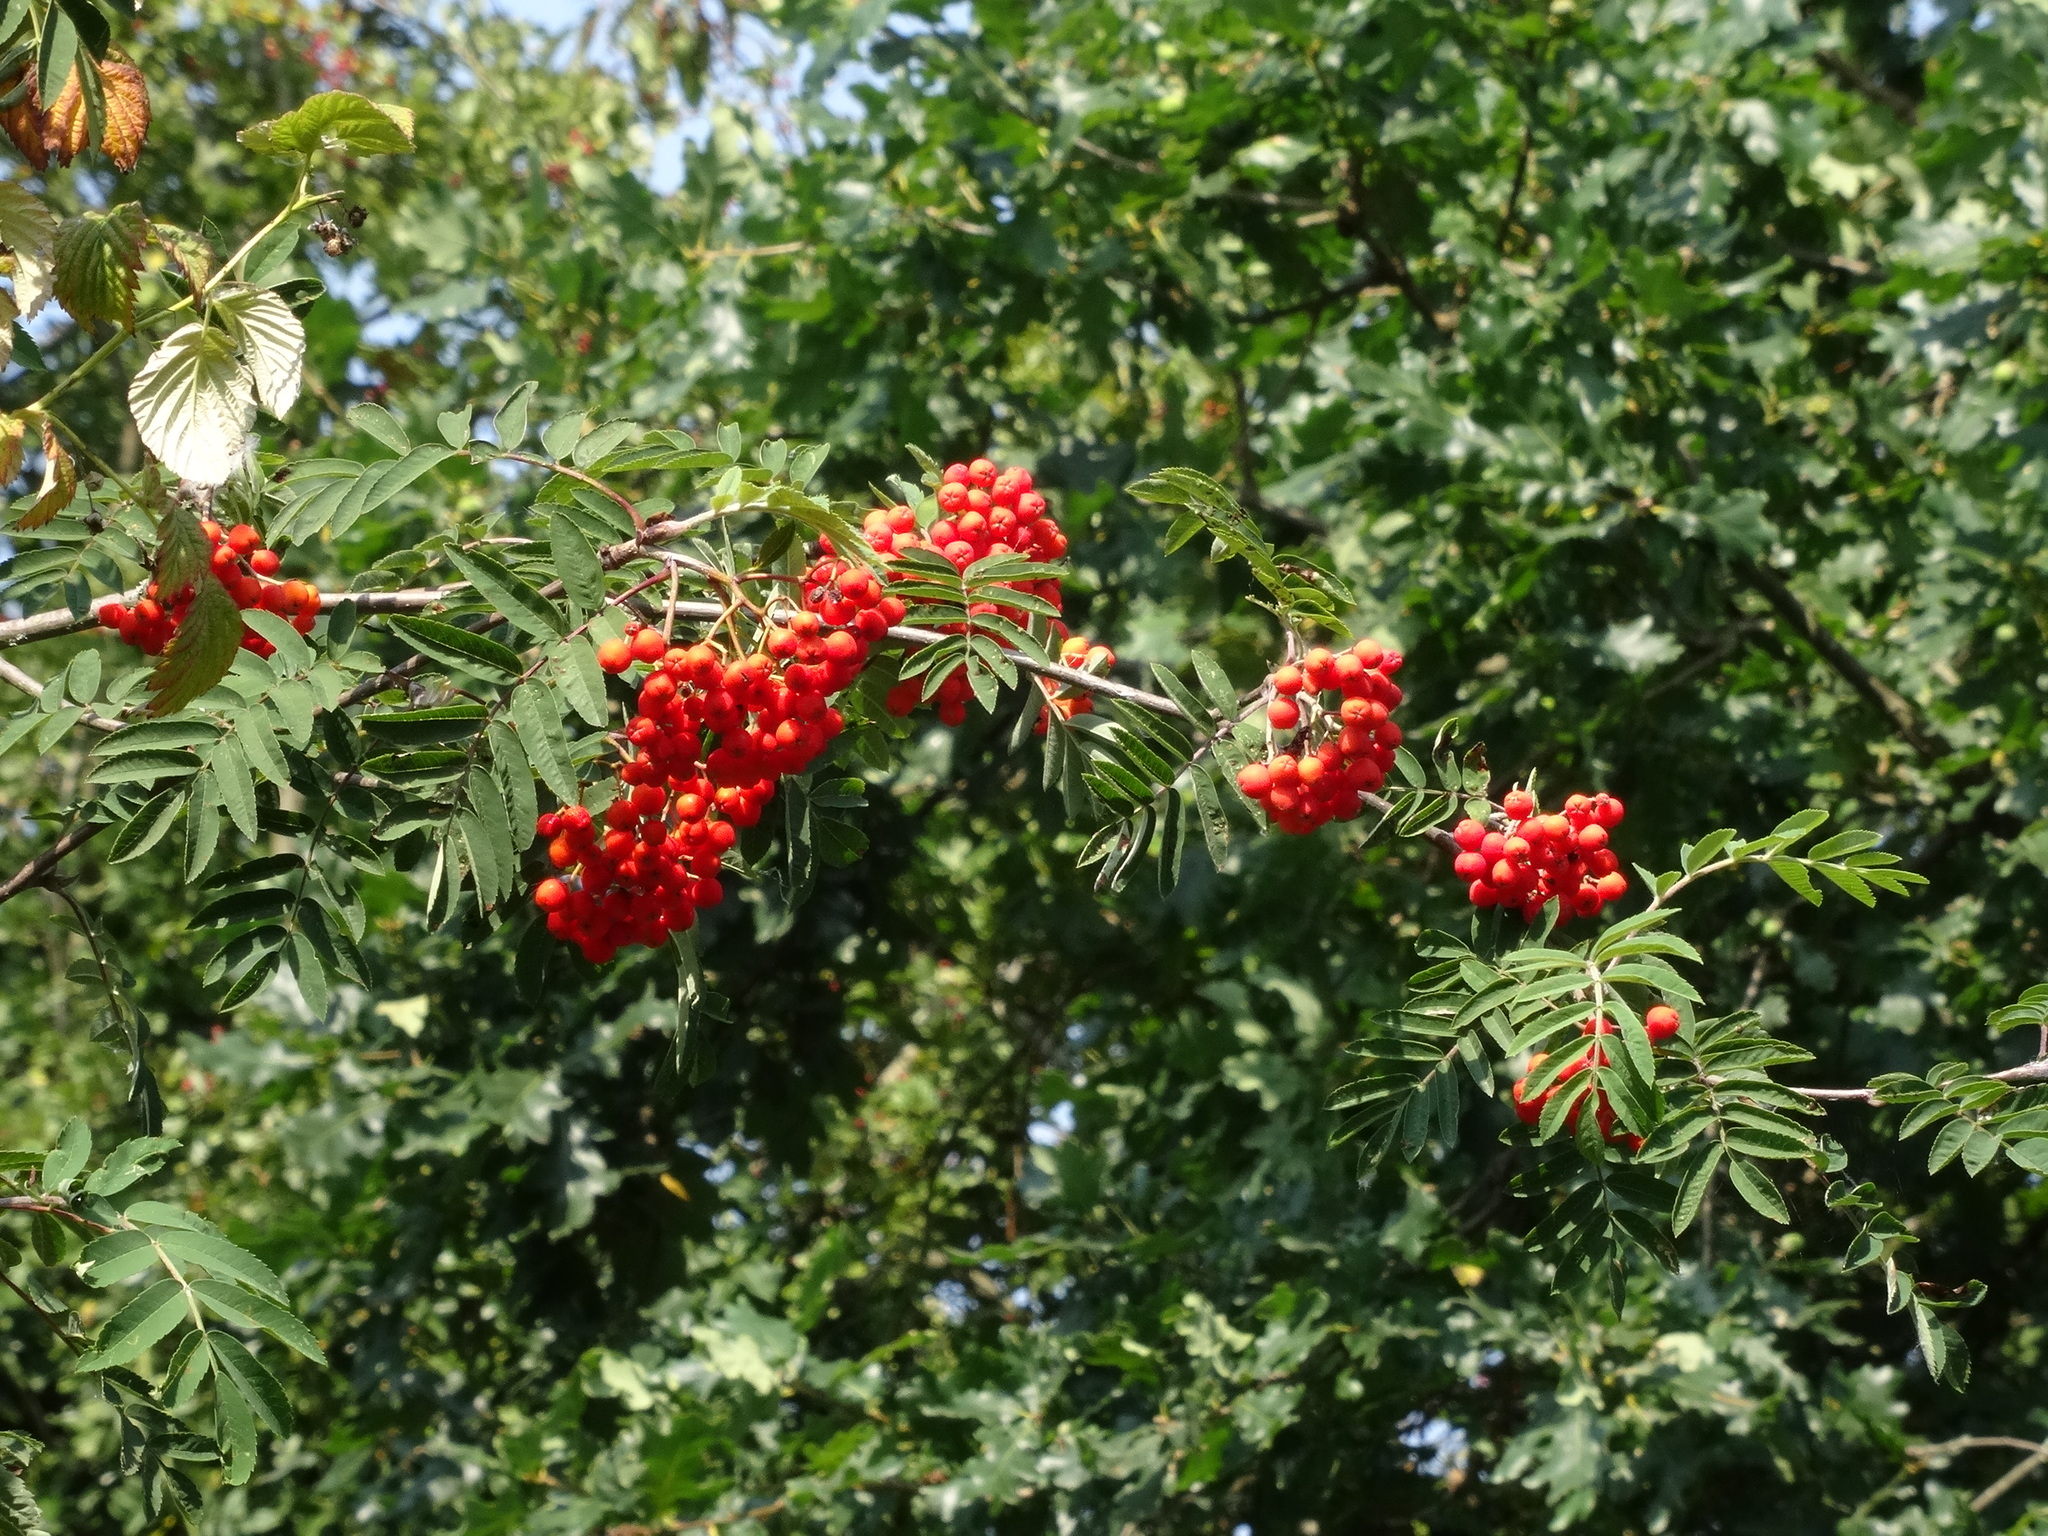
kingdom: Plantae
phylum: Tracheophyta
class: Magnoliopsida
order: Rosales
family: Rosaceae
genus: Sorbus
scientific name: Sorbus aucuparia
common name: Rowan
